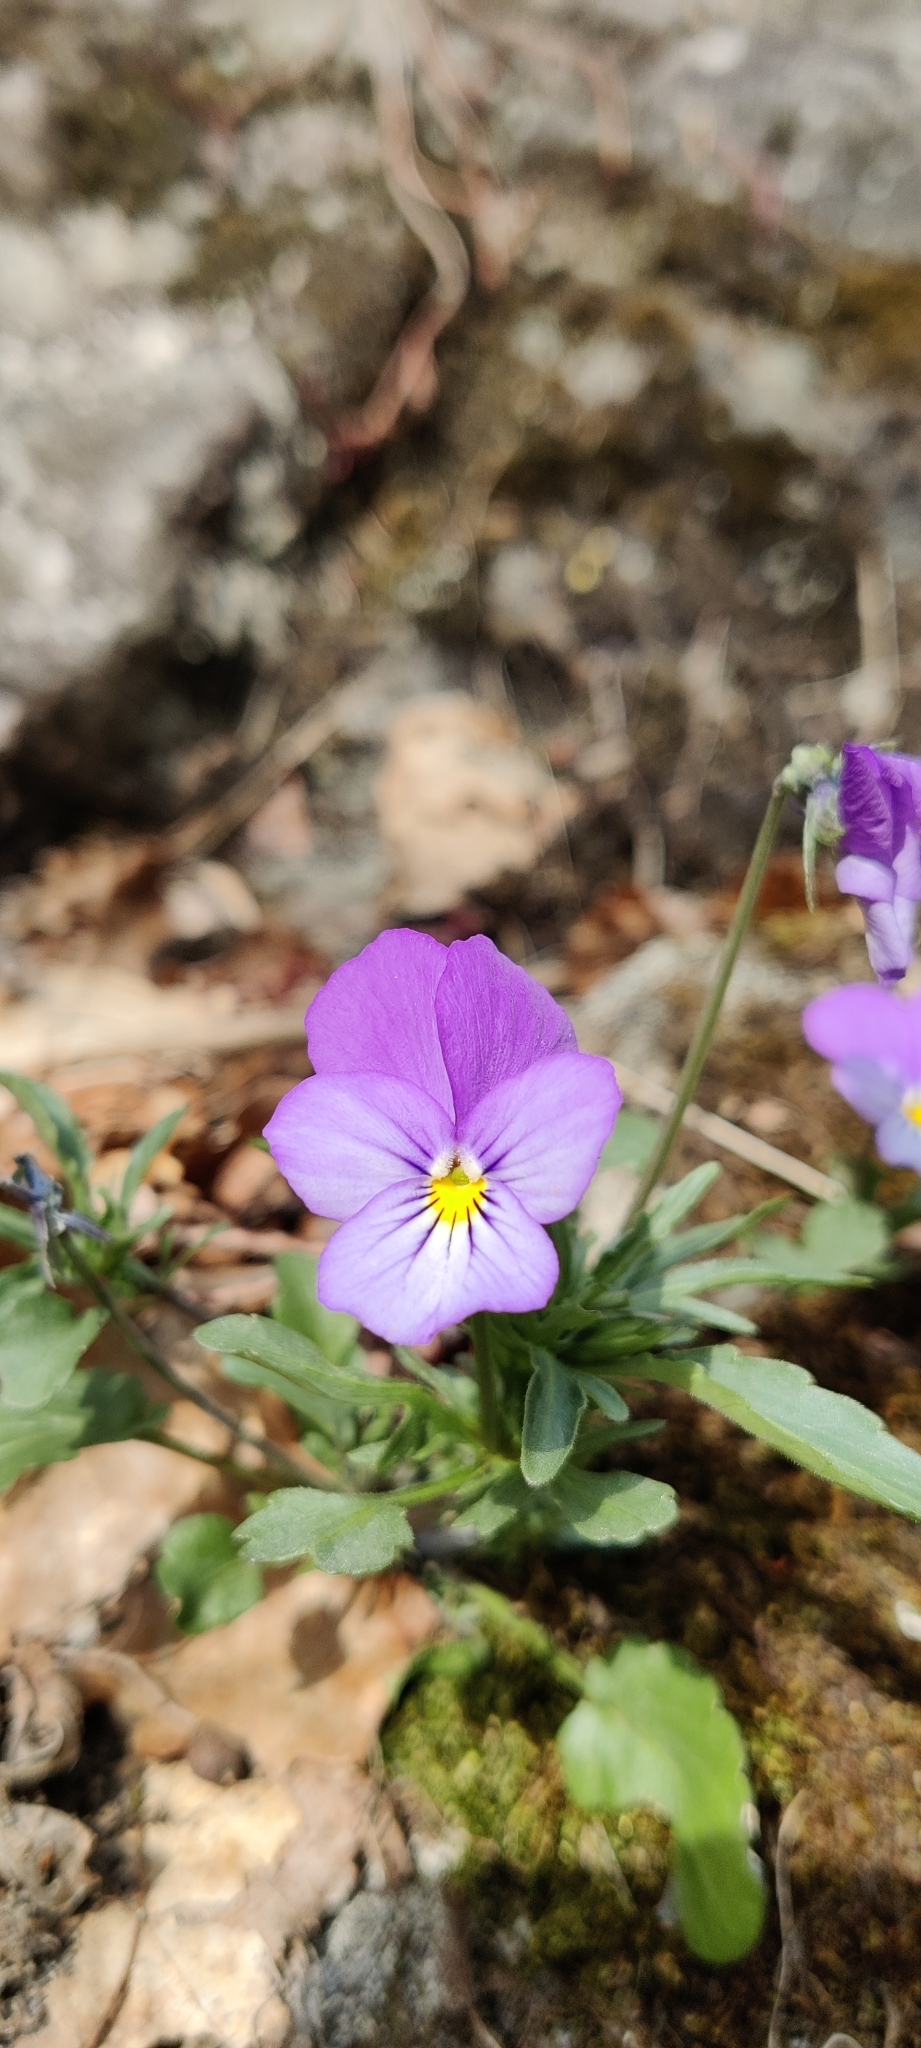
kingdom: Plantae
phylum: Tracheophyta
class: Magnoliopsida
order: Malpighiales
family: Violaceae
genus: Viola
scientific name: Viola tricolor
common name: Pansy
